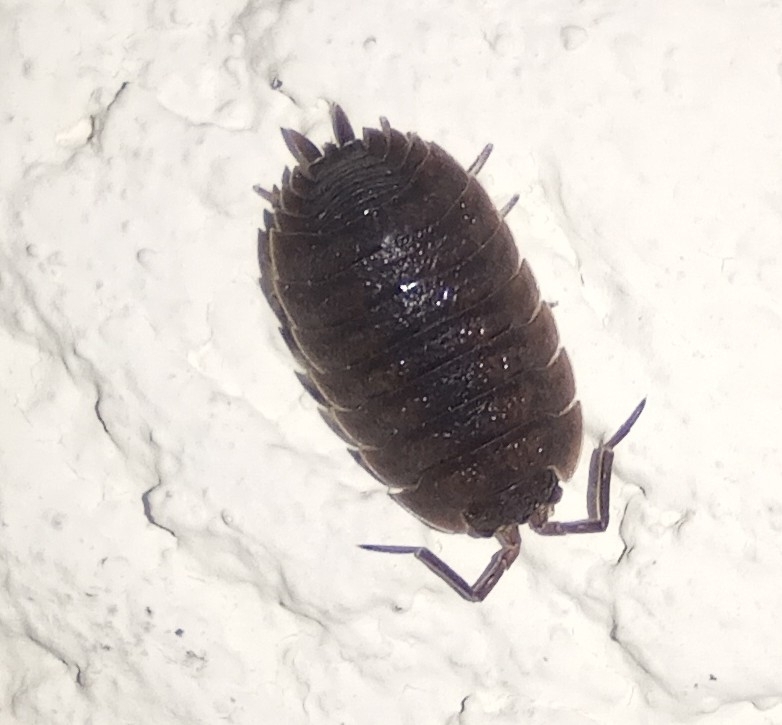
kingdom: Animalia
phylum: Arthropoda
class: Malacostraca
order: Isopoda
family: Porcellionidae
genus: Porcellio
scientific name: Porcellio scaber
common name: Common rough woodlouse
